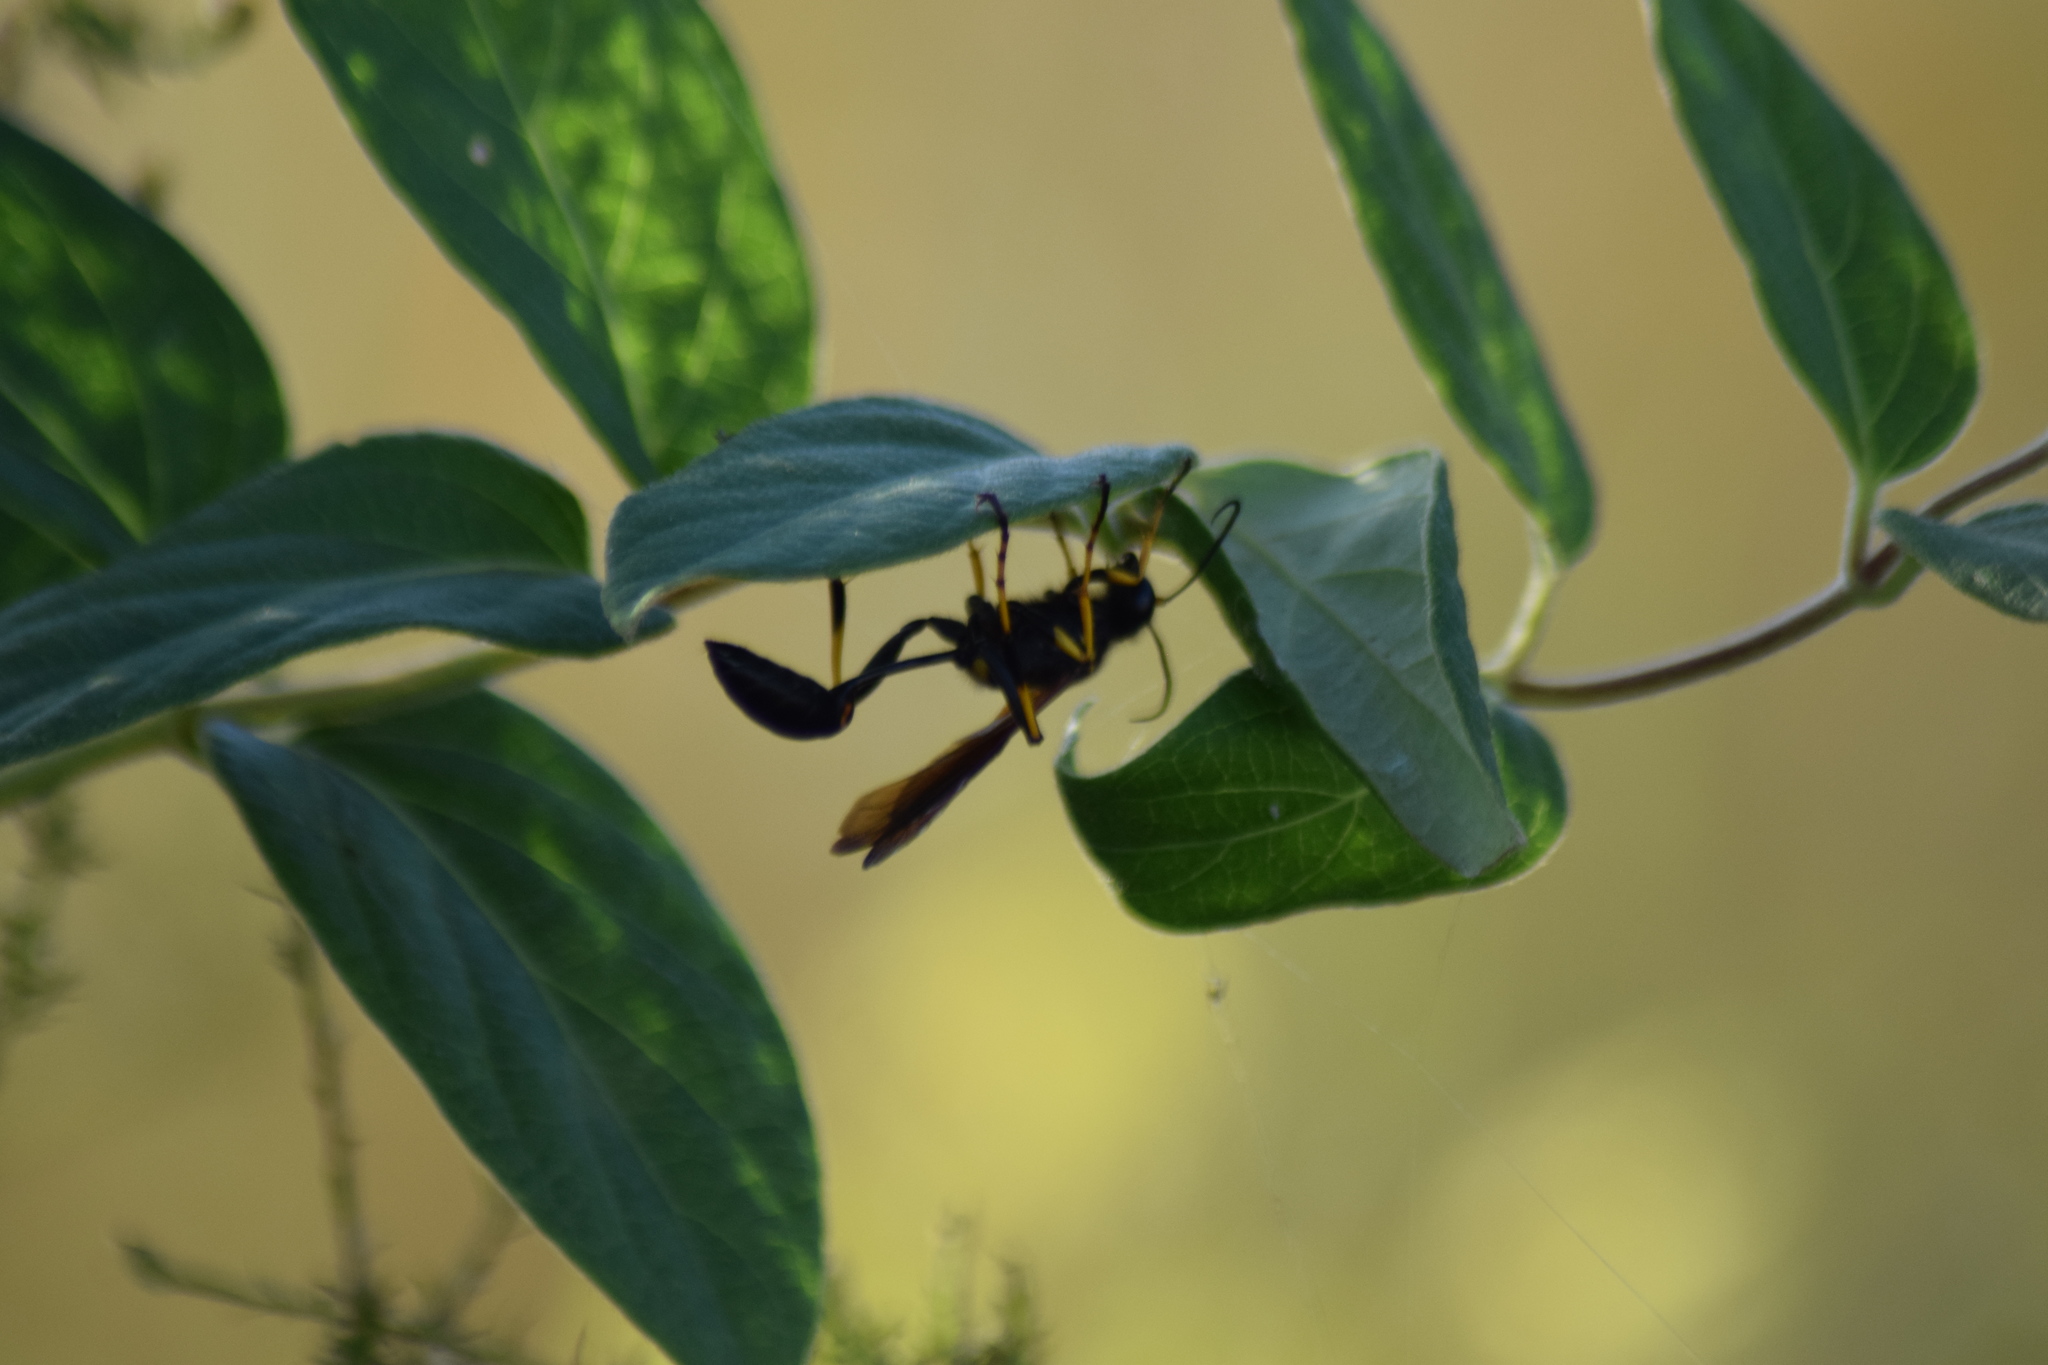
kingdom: Animalia
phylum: Arthropoda
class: Insecta
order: Hymenoptera
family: Sphecidae
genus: Sceliphron
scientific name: Sceliphron caementarium
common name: Mud dauber
